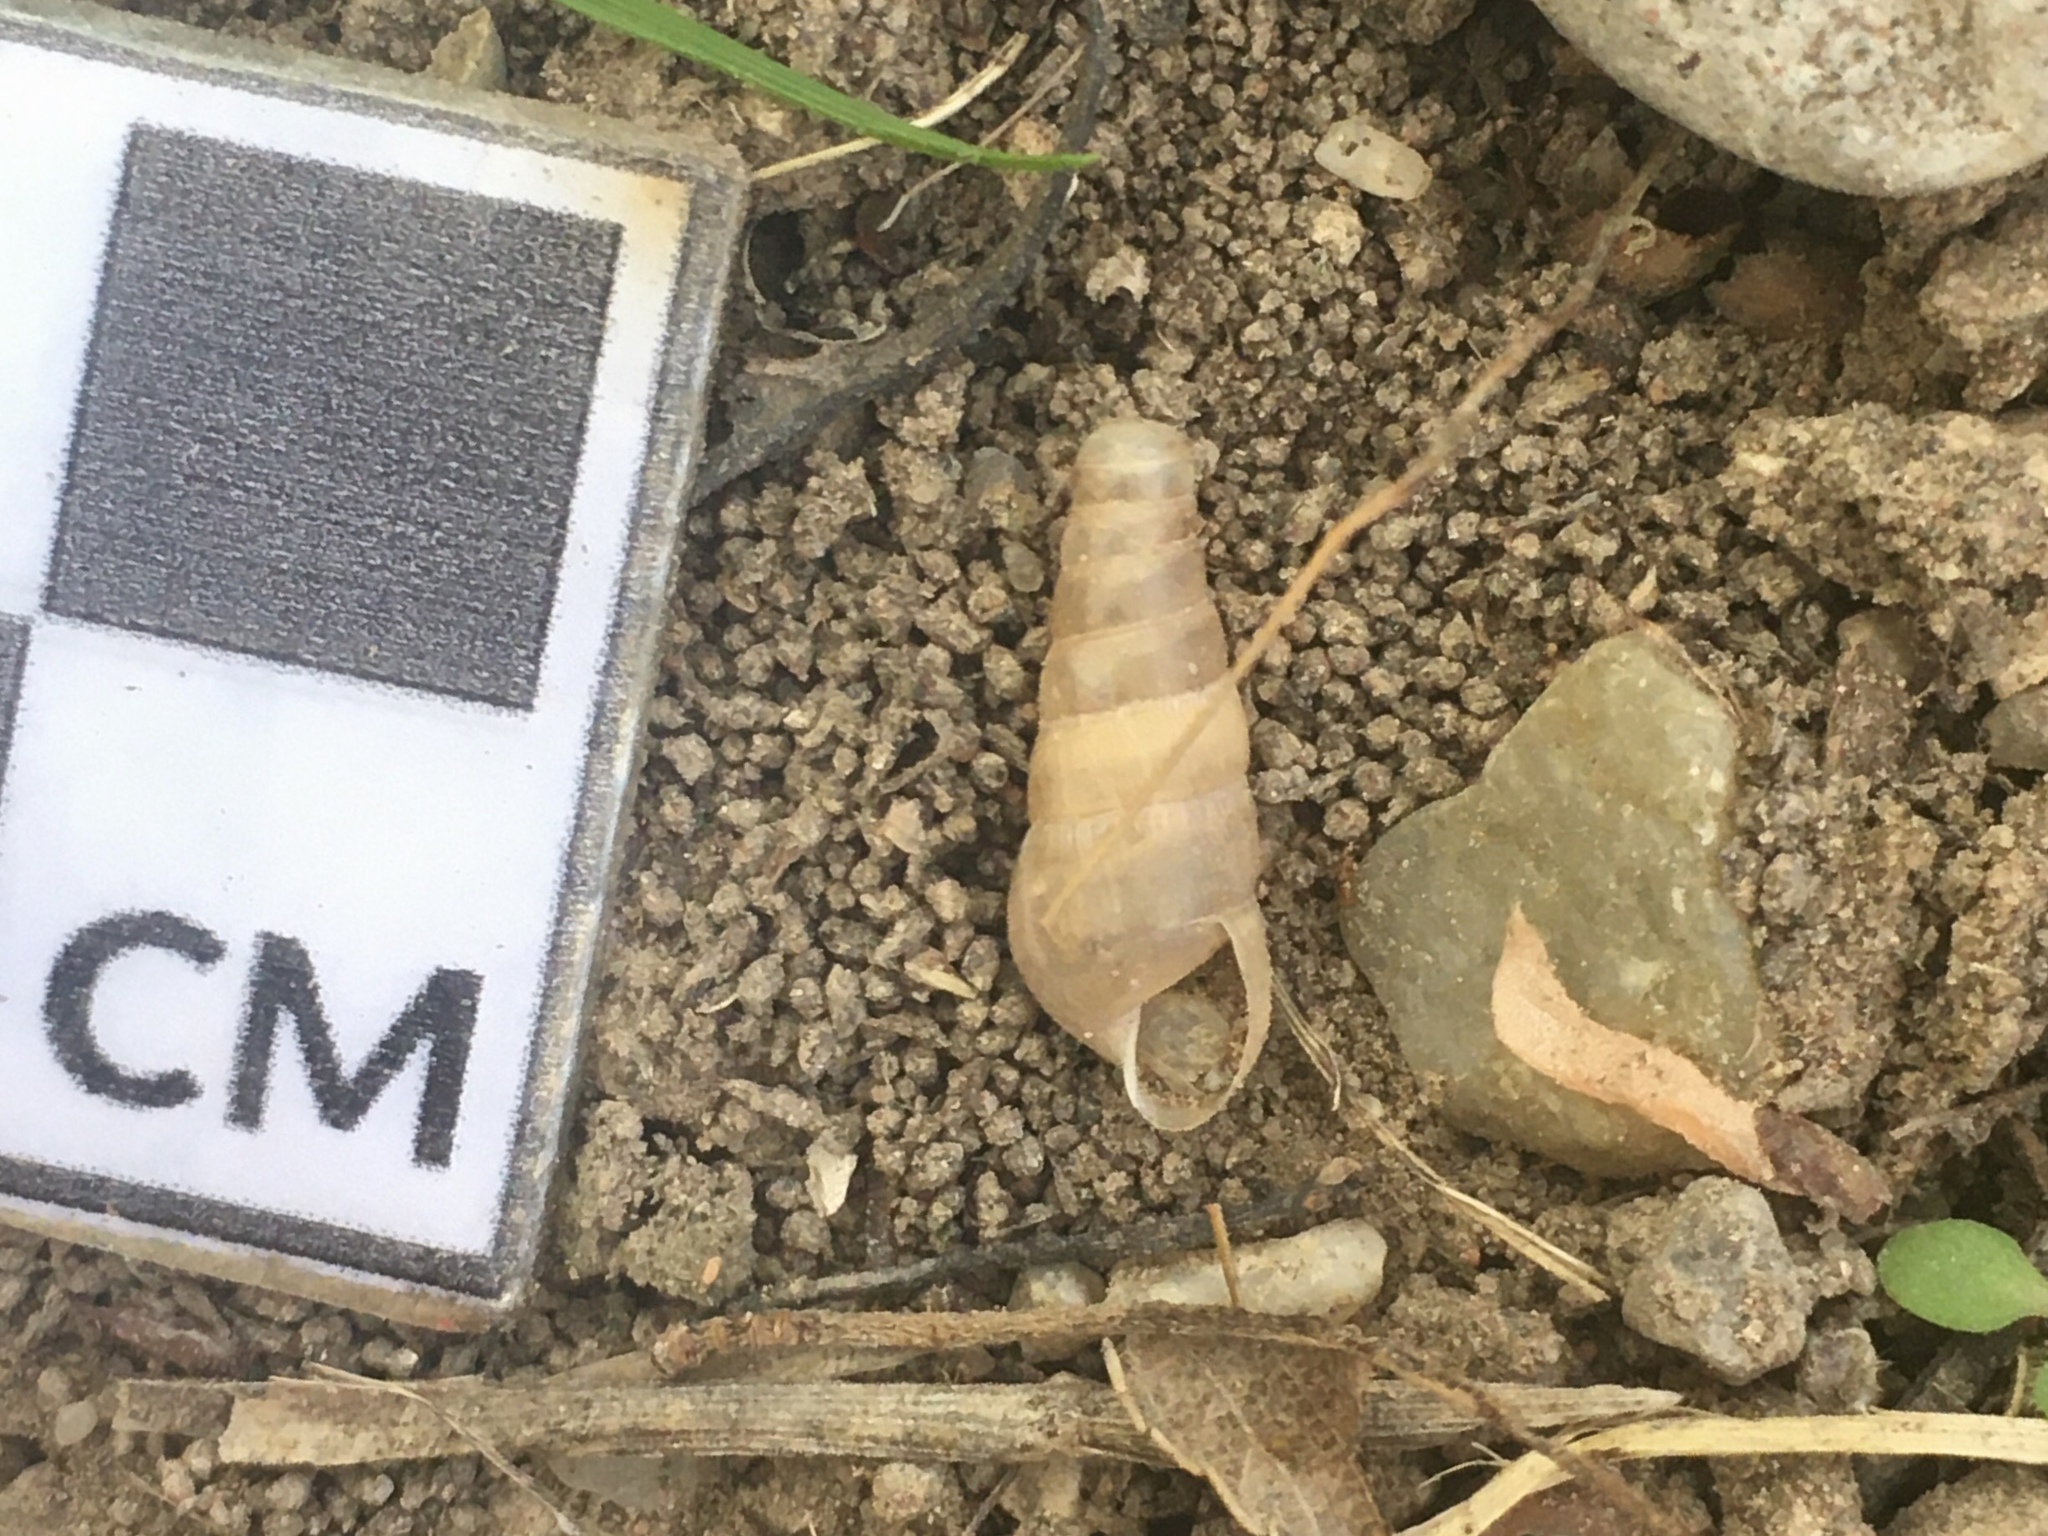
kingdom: Animalia
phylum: Mollusca
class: Gastropoda
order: Stylommatophora
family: Achatinidae
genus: Rumina
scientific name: Rumina decollata
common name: Decollate snail
